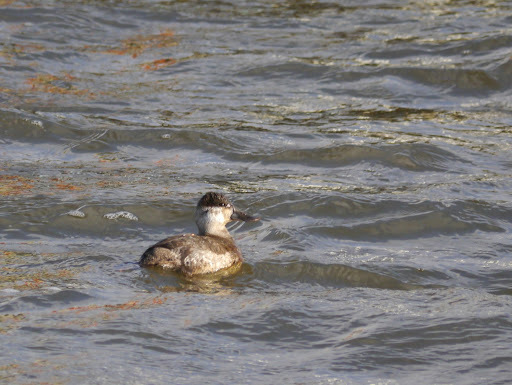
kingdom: Animalia
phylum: Chordata
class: Aves
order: Anseriformes
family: Anatidae
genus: Oxyura
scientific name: Oxyura jamaicensis
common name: Ruddy duck
